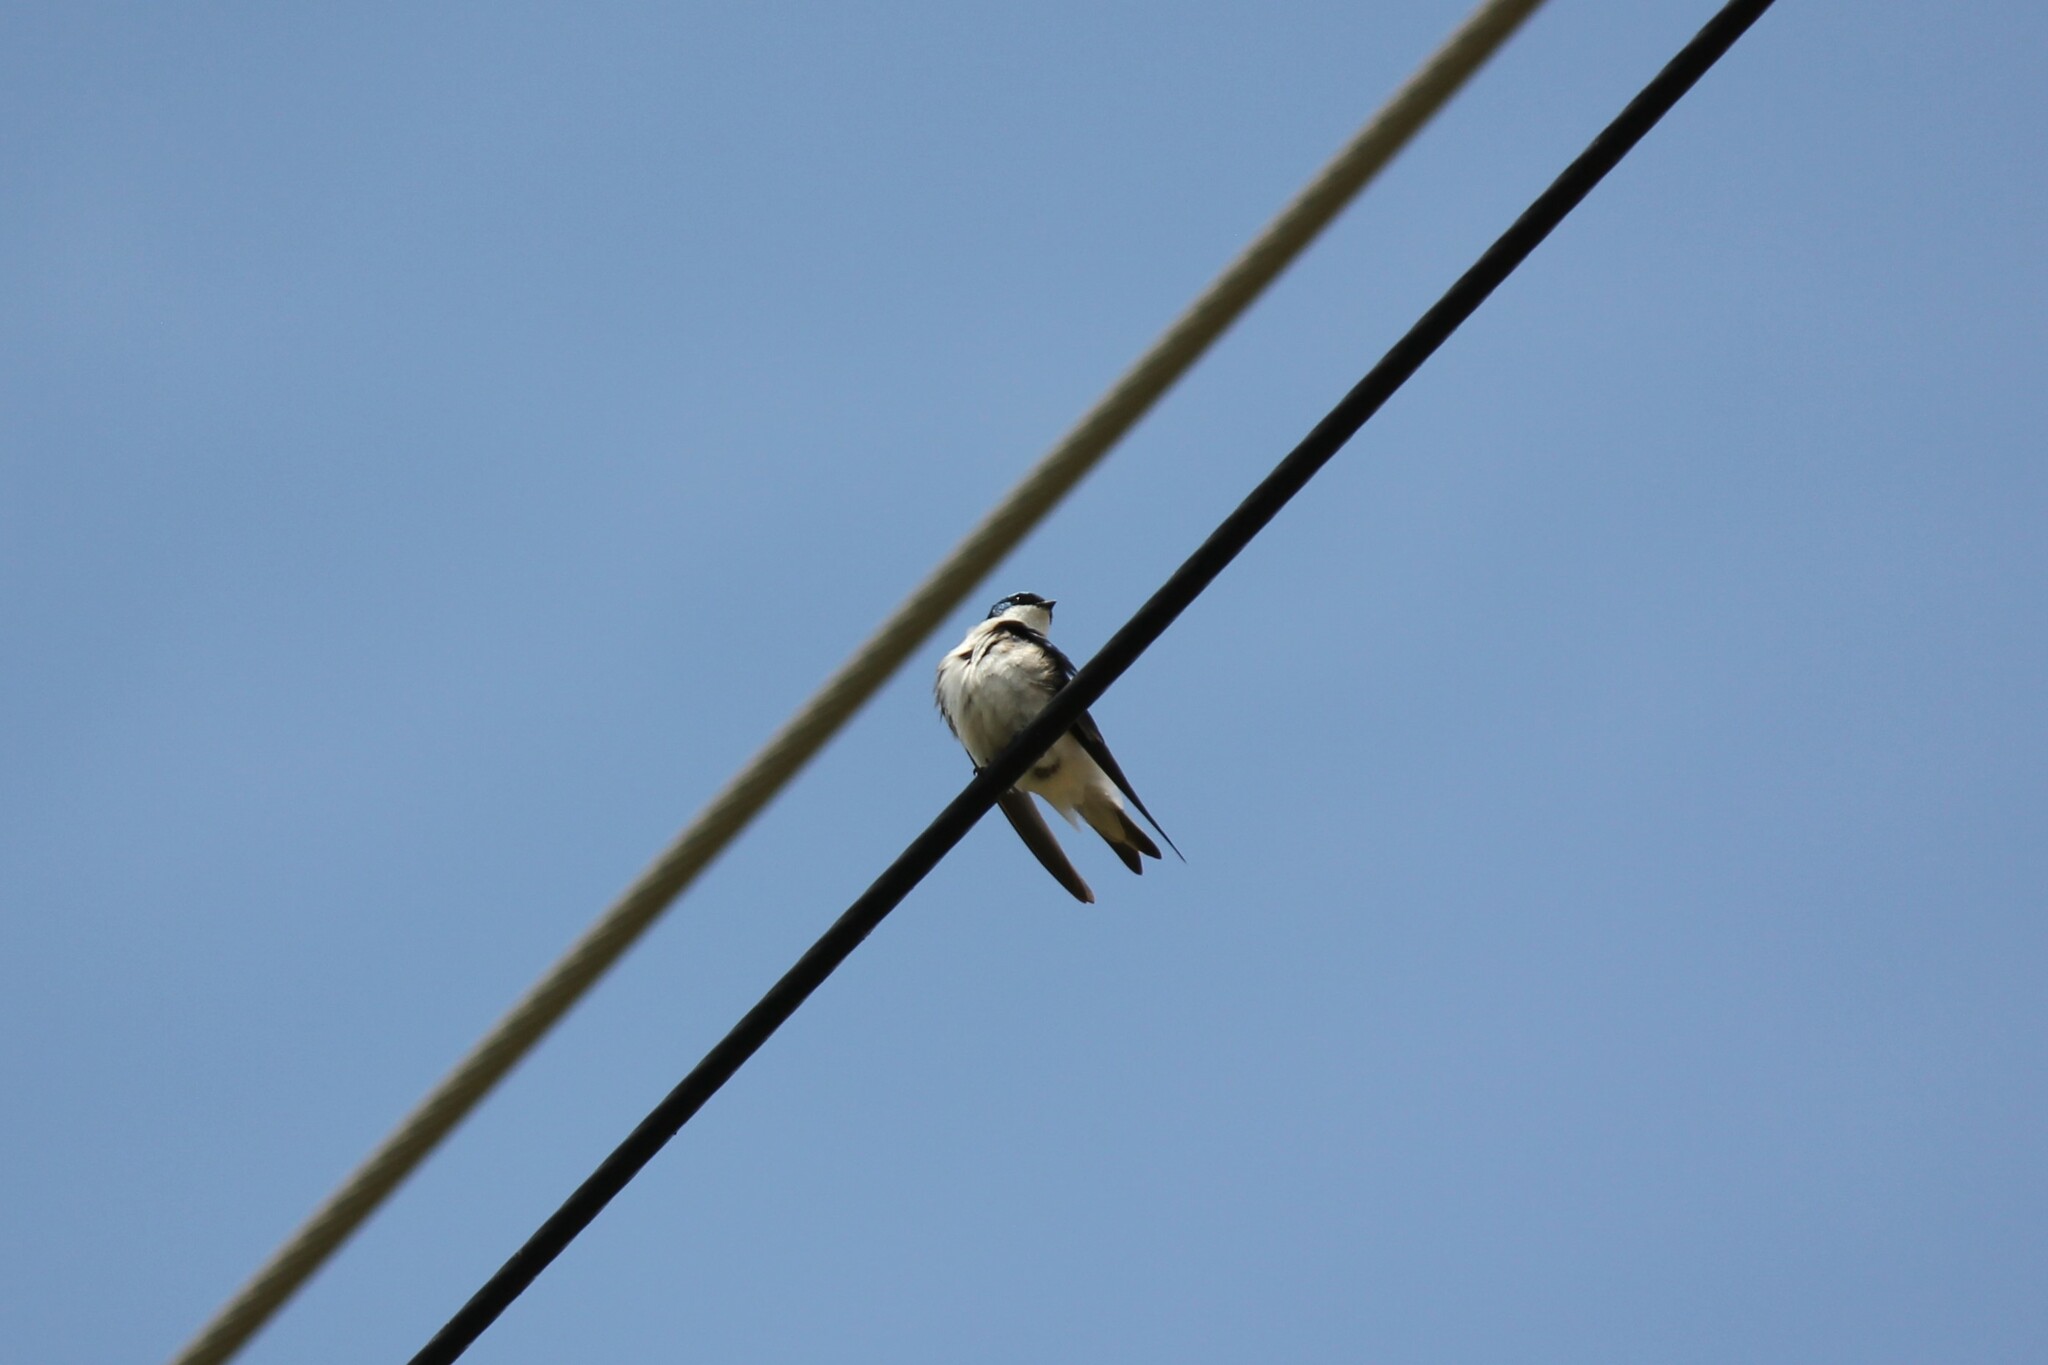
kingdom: Animalia
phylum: Chordata
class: Aves
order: Passeriformes
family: Hirundinidae
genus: Tachycineta
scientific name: Tachycineta bicolor
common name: Tree swallow
